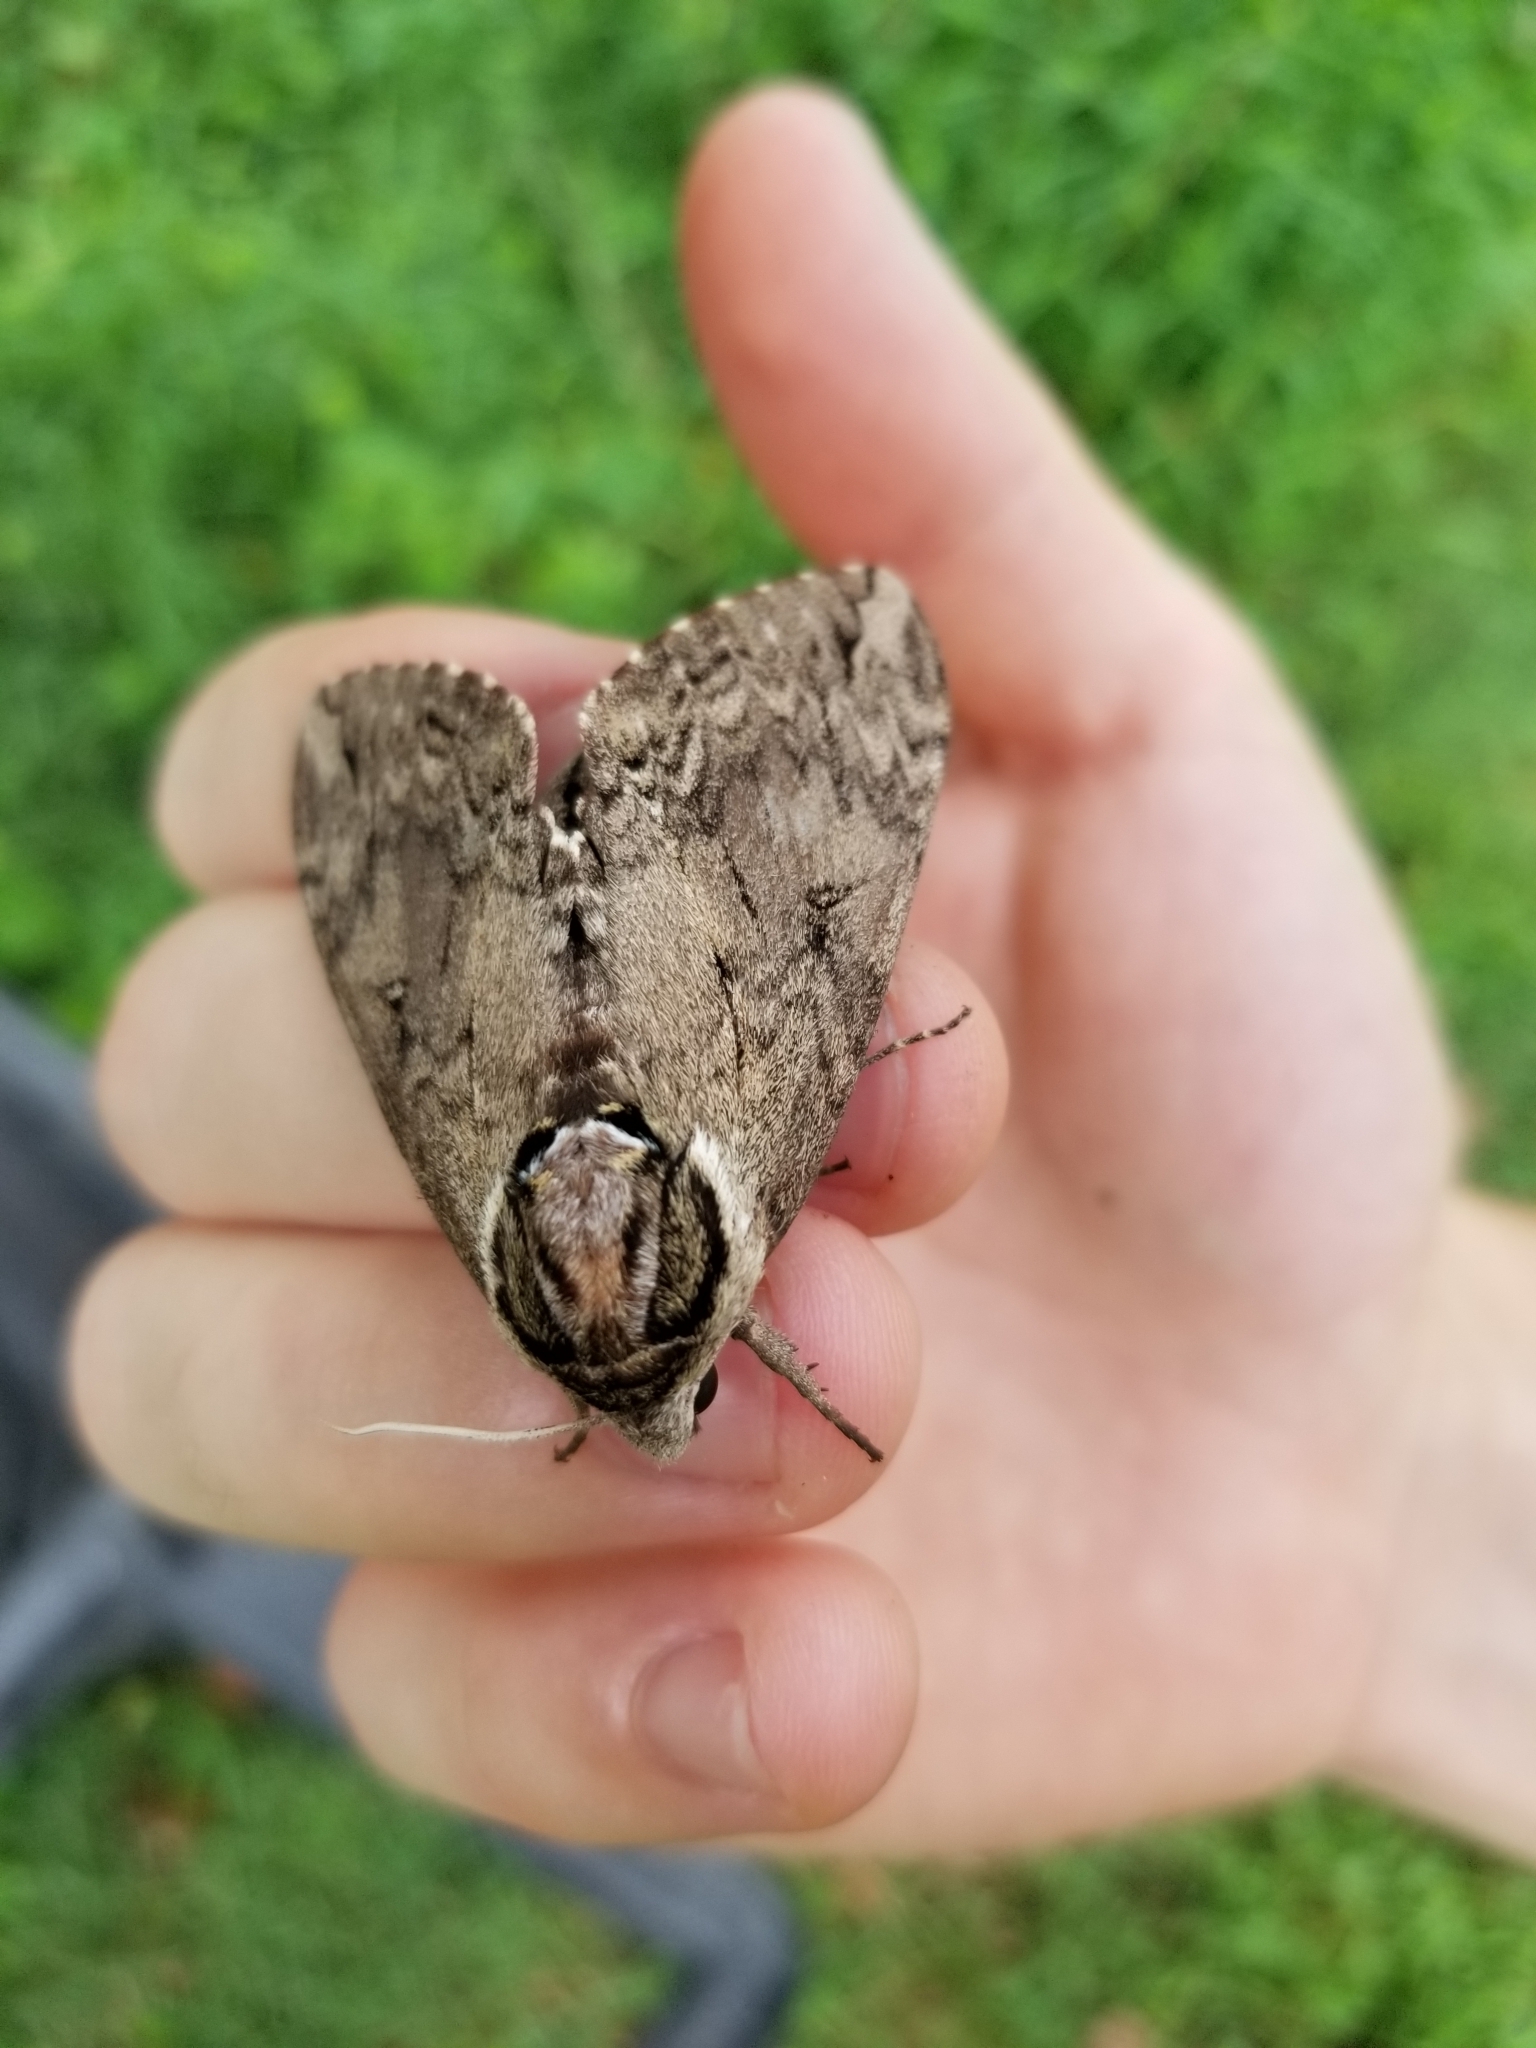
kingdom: Animalia
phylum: Arthropoda
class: Insecta
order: Lepidoptera
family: Sphingidae
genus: Ceratomia
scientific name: Ceratomia catalpae
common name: Catalpa hornworm
